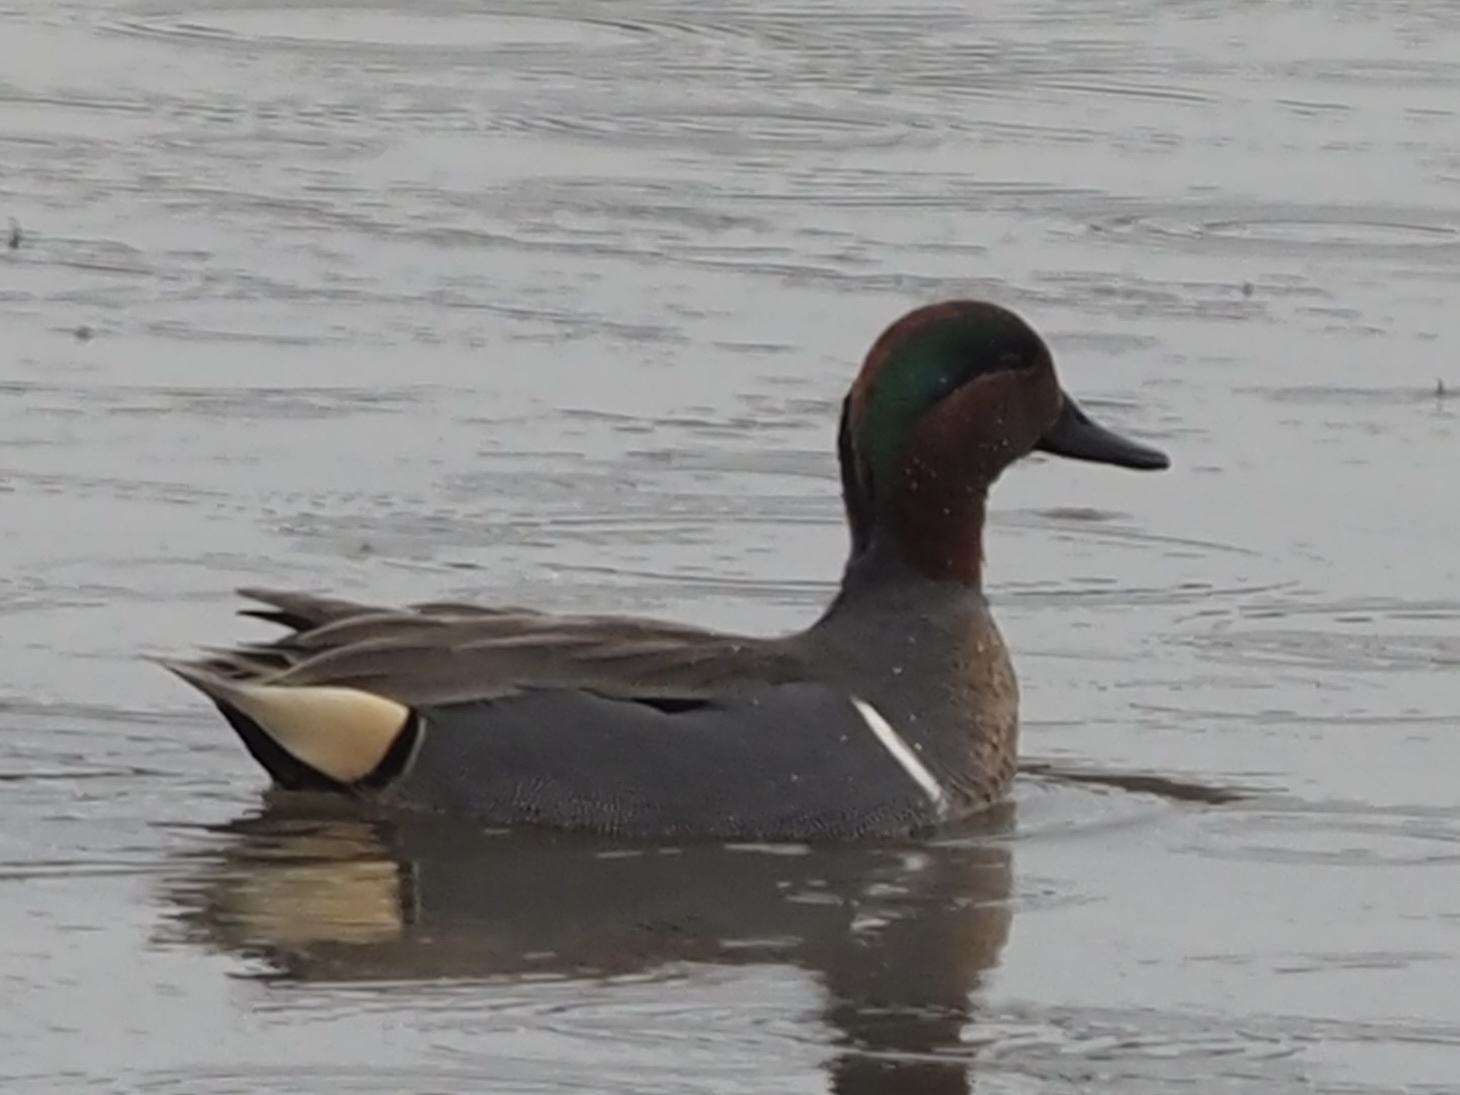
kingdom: Animalia
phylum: Chordata
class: Aves
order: Anseriformes
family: Anatidae
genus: Anas
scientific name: Anas crecca
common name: Eurasian teal
